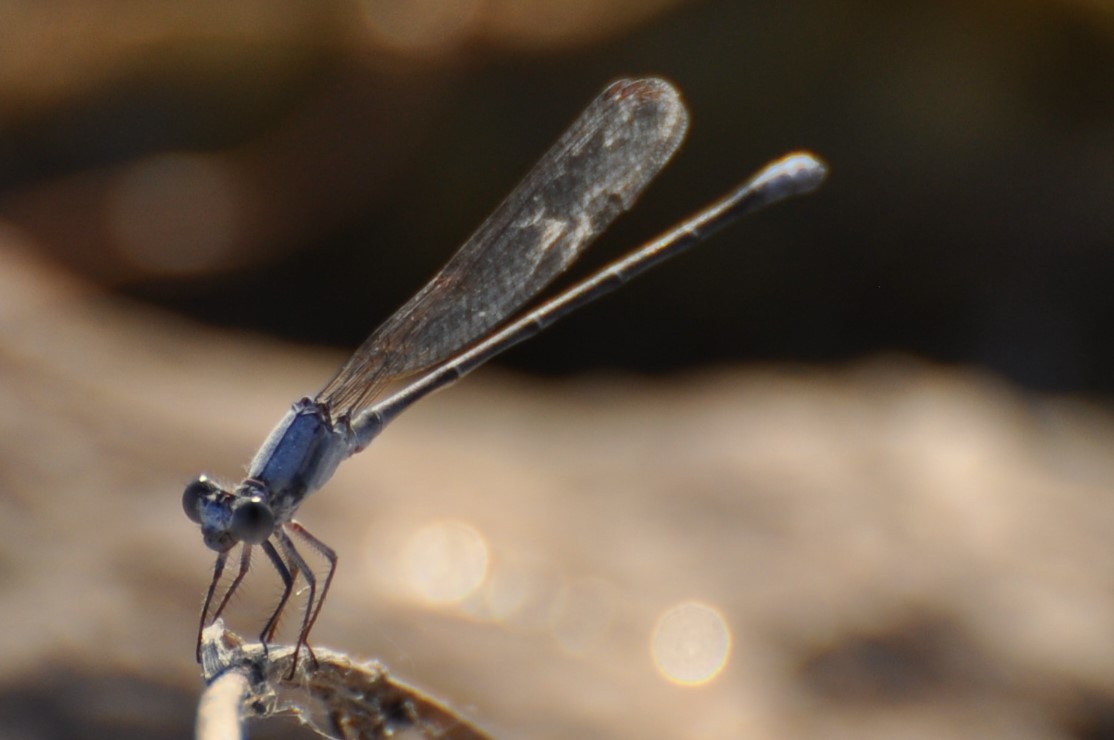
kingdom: Animalia
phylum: Arthropoda
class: Insecta
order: Odonata
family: Coenagrionidae
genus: Argia
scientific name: Argia moesta
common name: Powdered dancer
